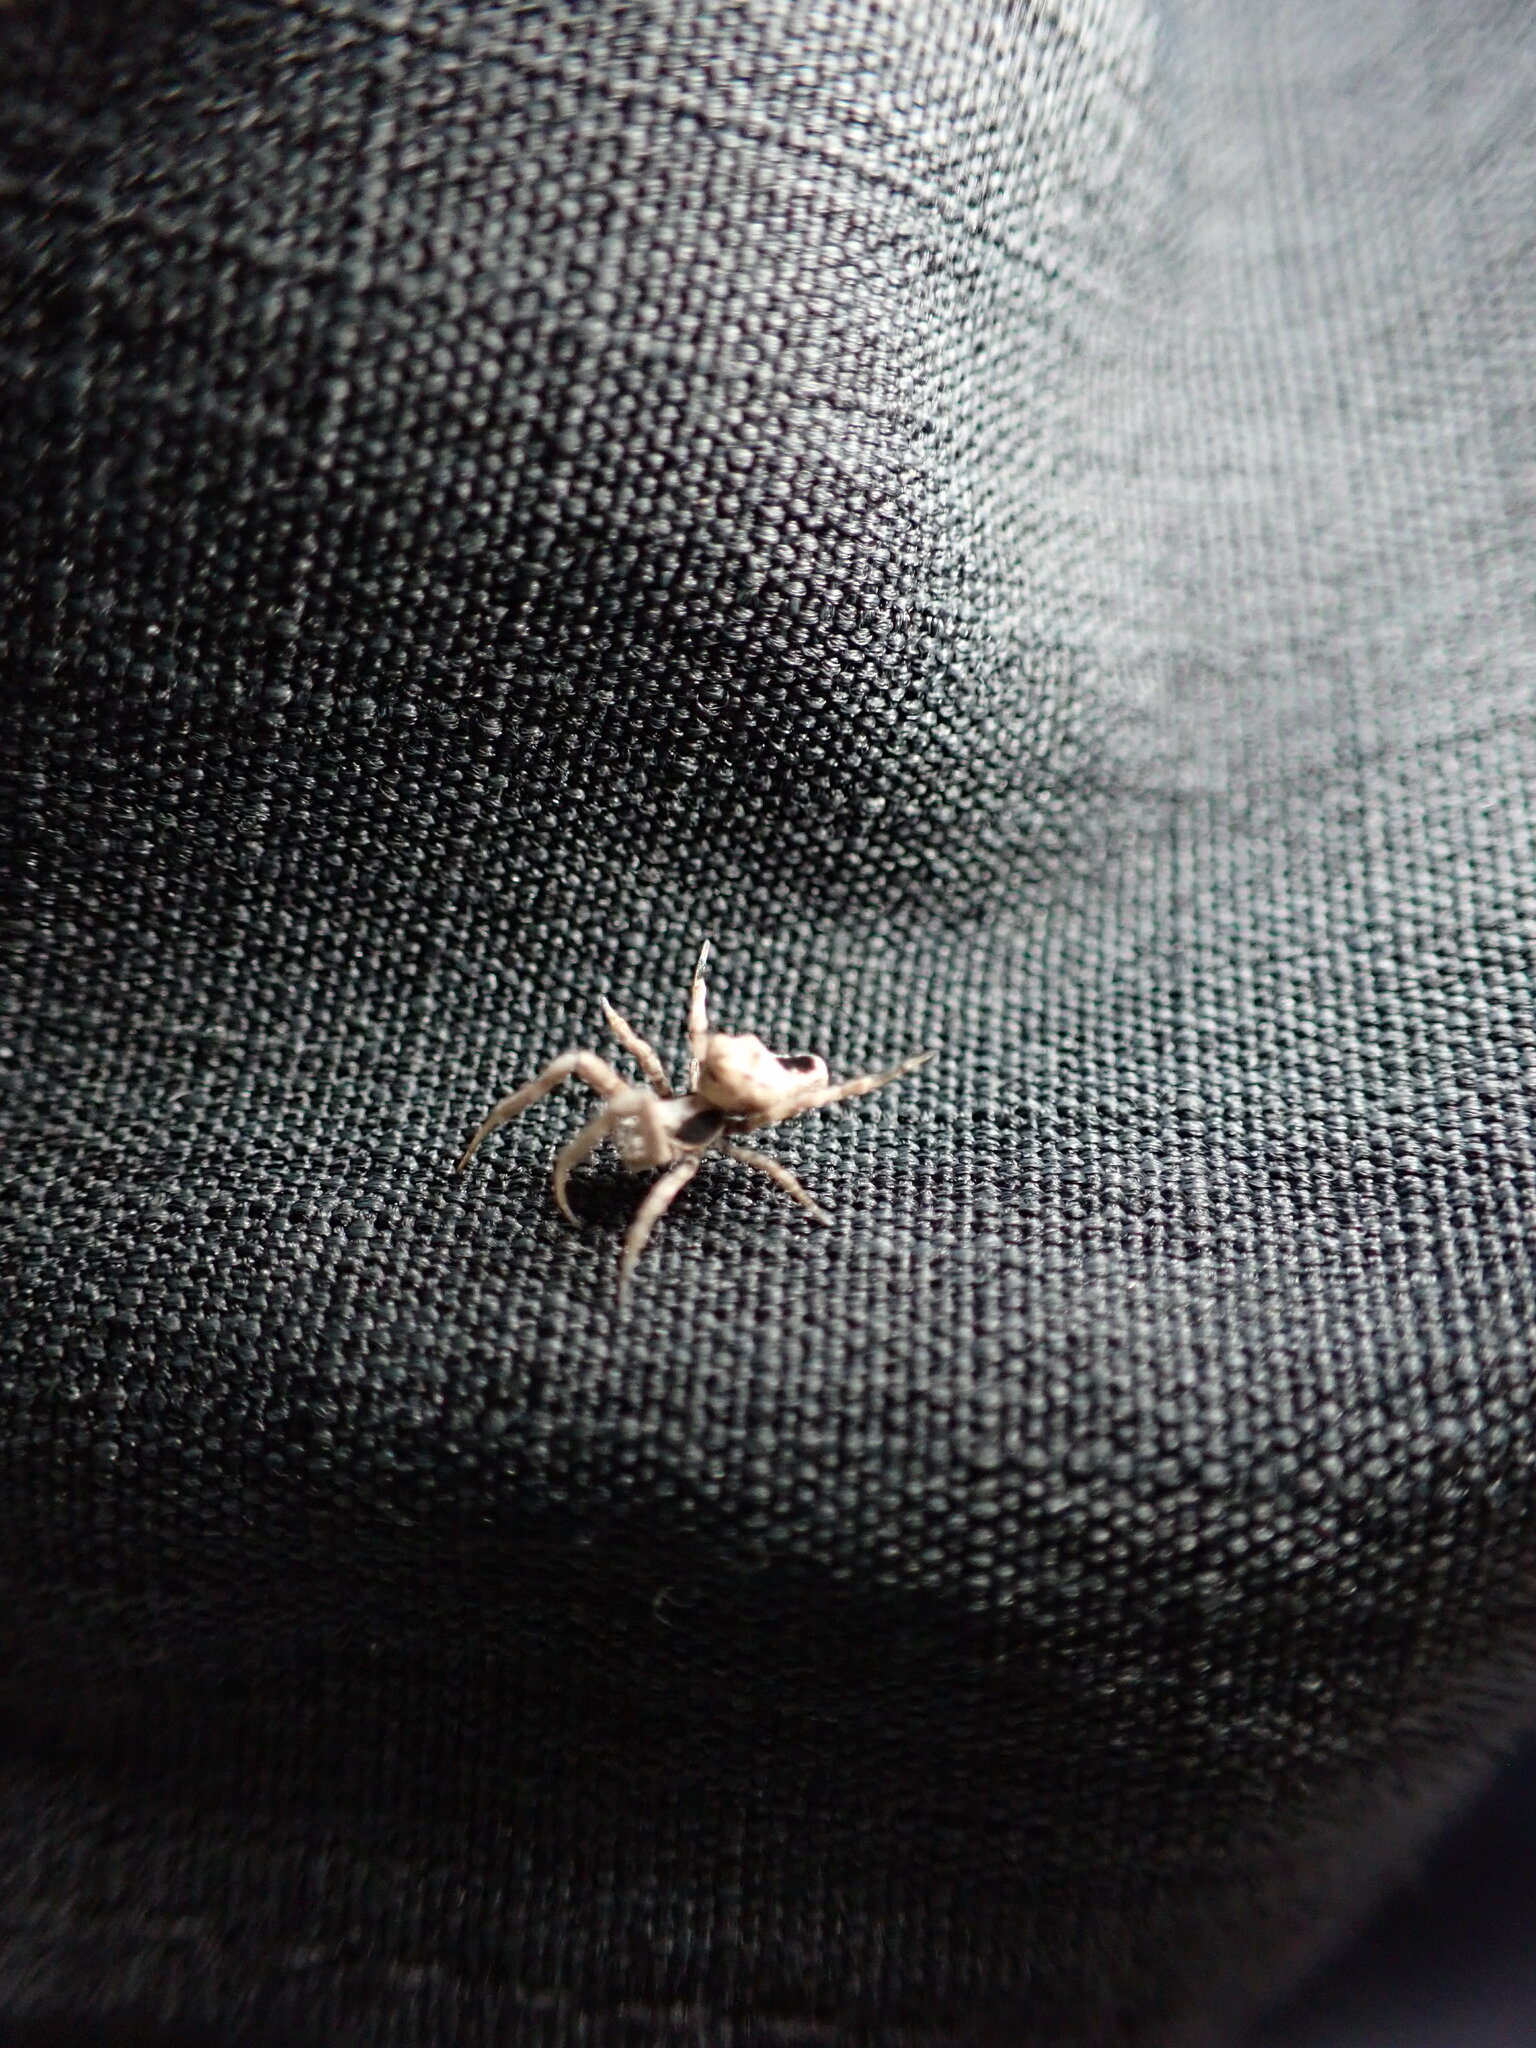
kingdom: Animalia
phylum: Arthropoda
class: Arachnida
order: Araneae
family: Uloboridae
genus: Philoponella
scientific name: Philoponella congregabilis
